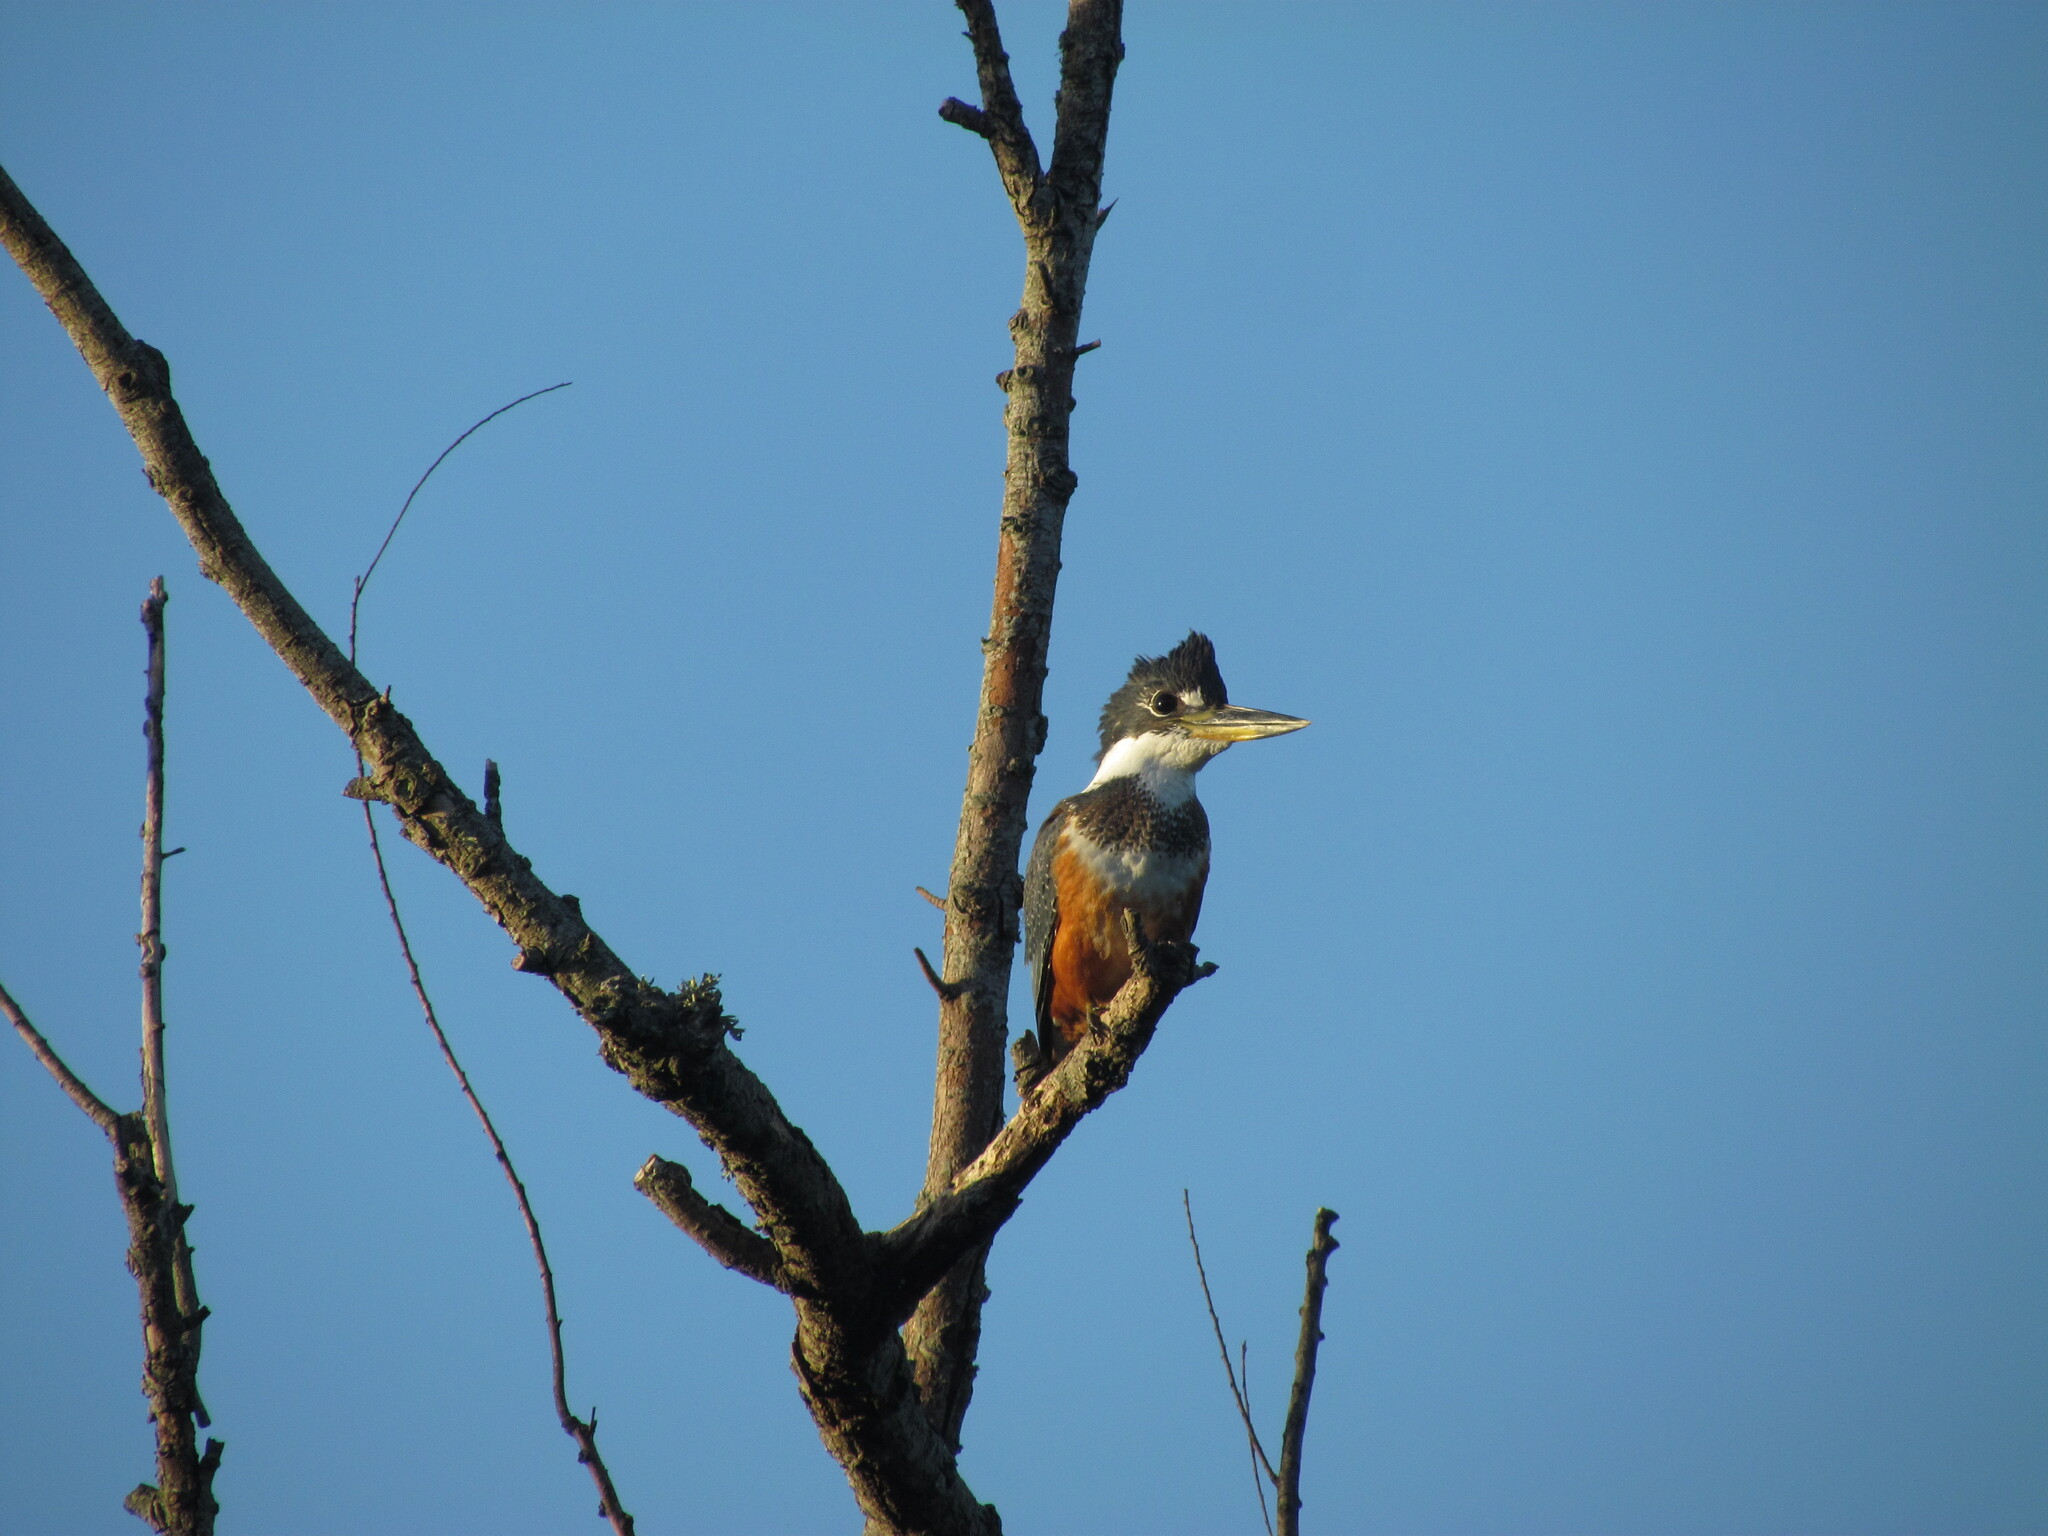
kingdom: Animalia
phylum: Chordata
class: Aves
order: Coraciiformes
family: Alcedinidae
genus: Megaceryle
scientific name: Megaceryle torquata
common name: Ringed kingfisher
